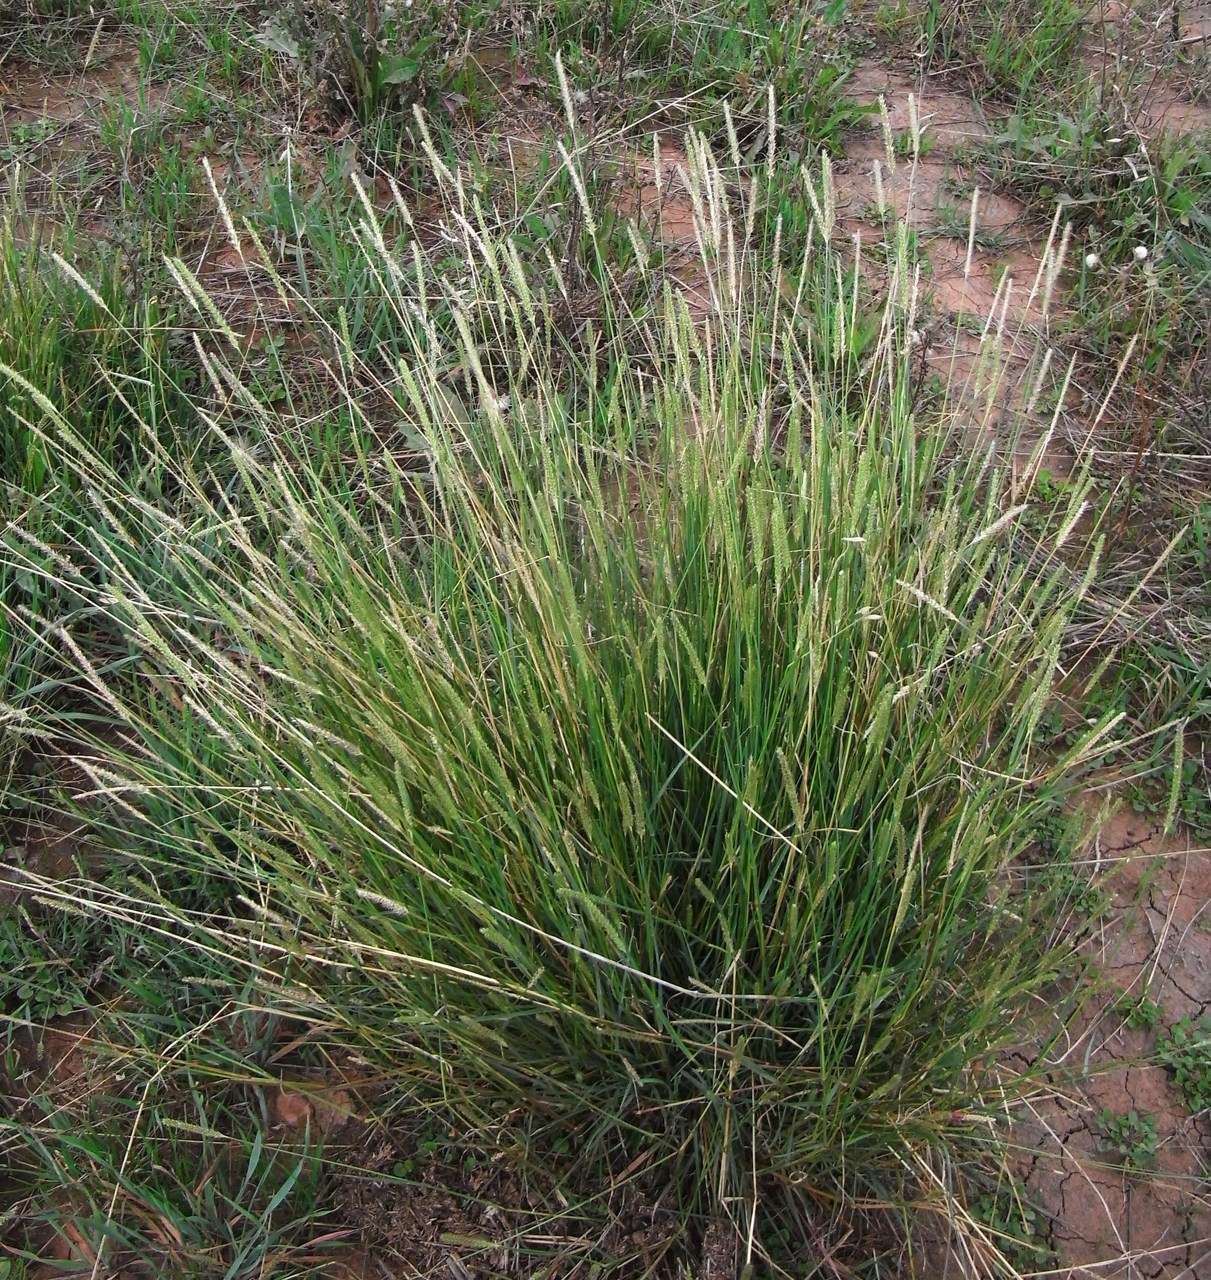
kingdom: Plantae
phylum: Tracheophyta
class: Liliopsida
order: Poales
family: Poaceae
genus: Setaria
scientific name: Setaria parviflora
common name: Knotroot bristle-grass
